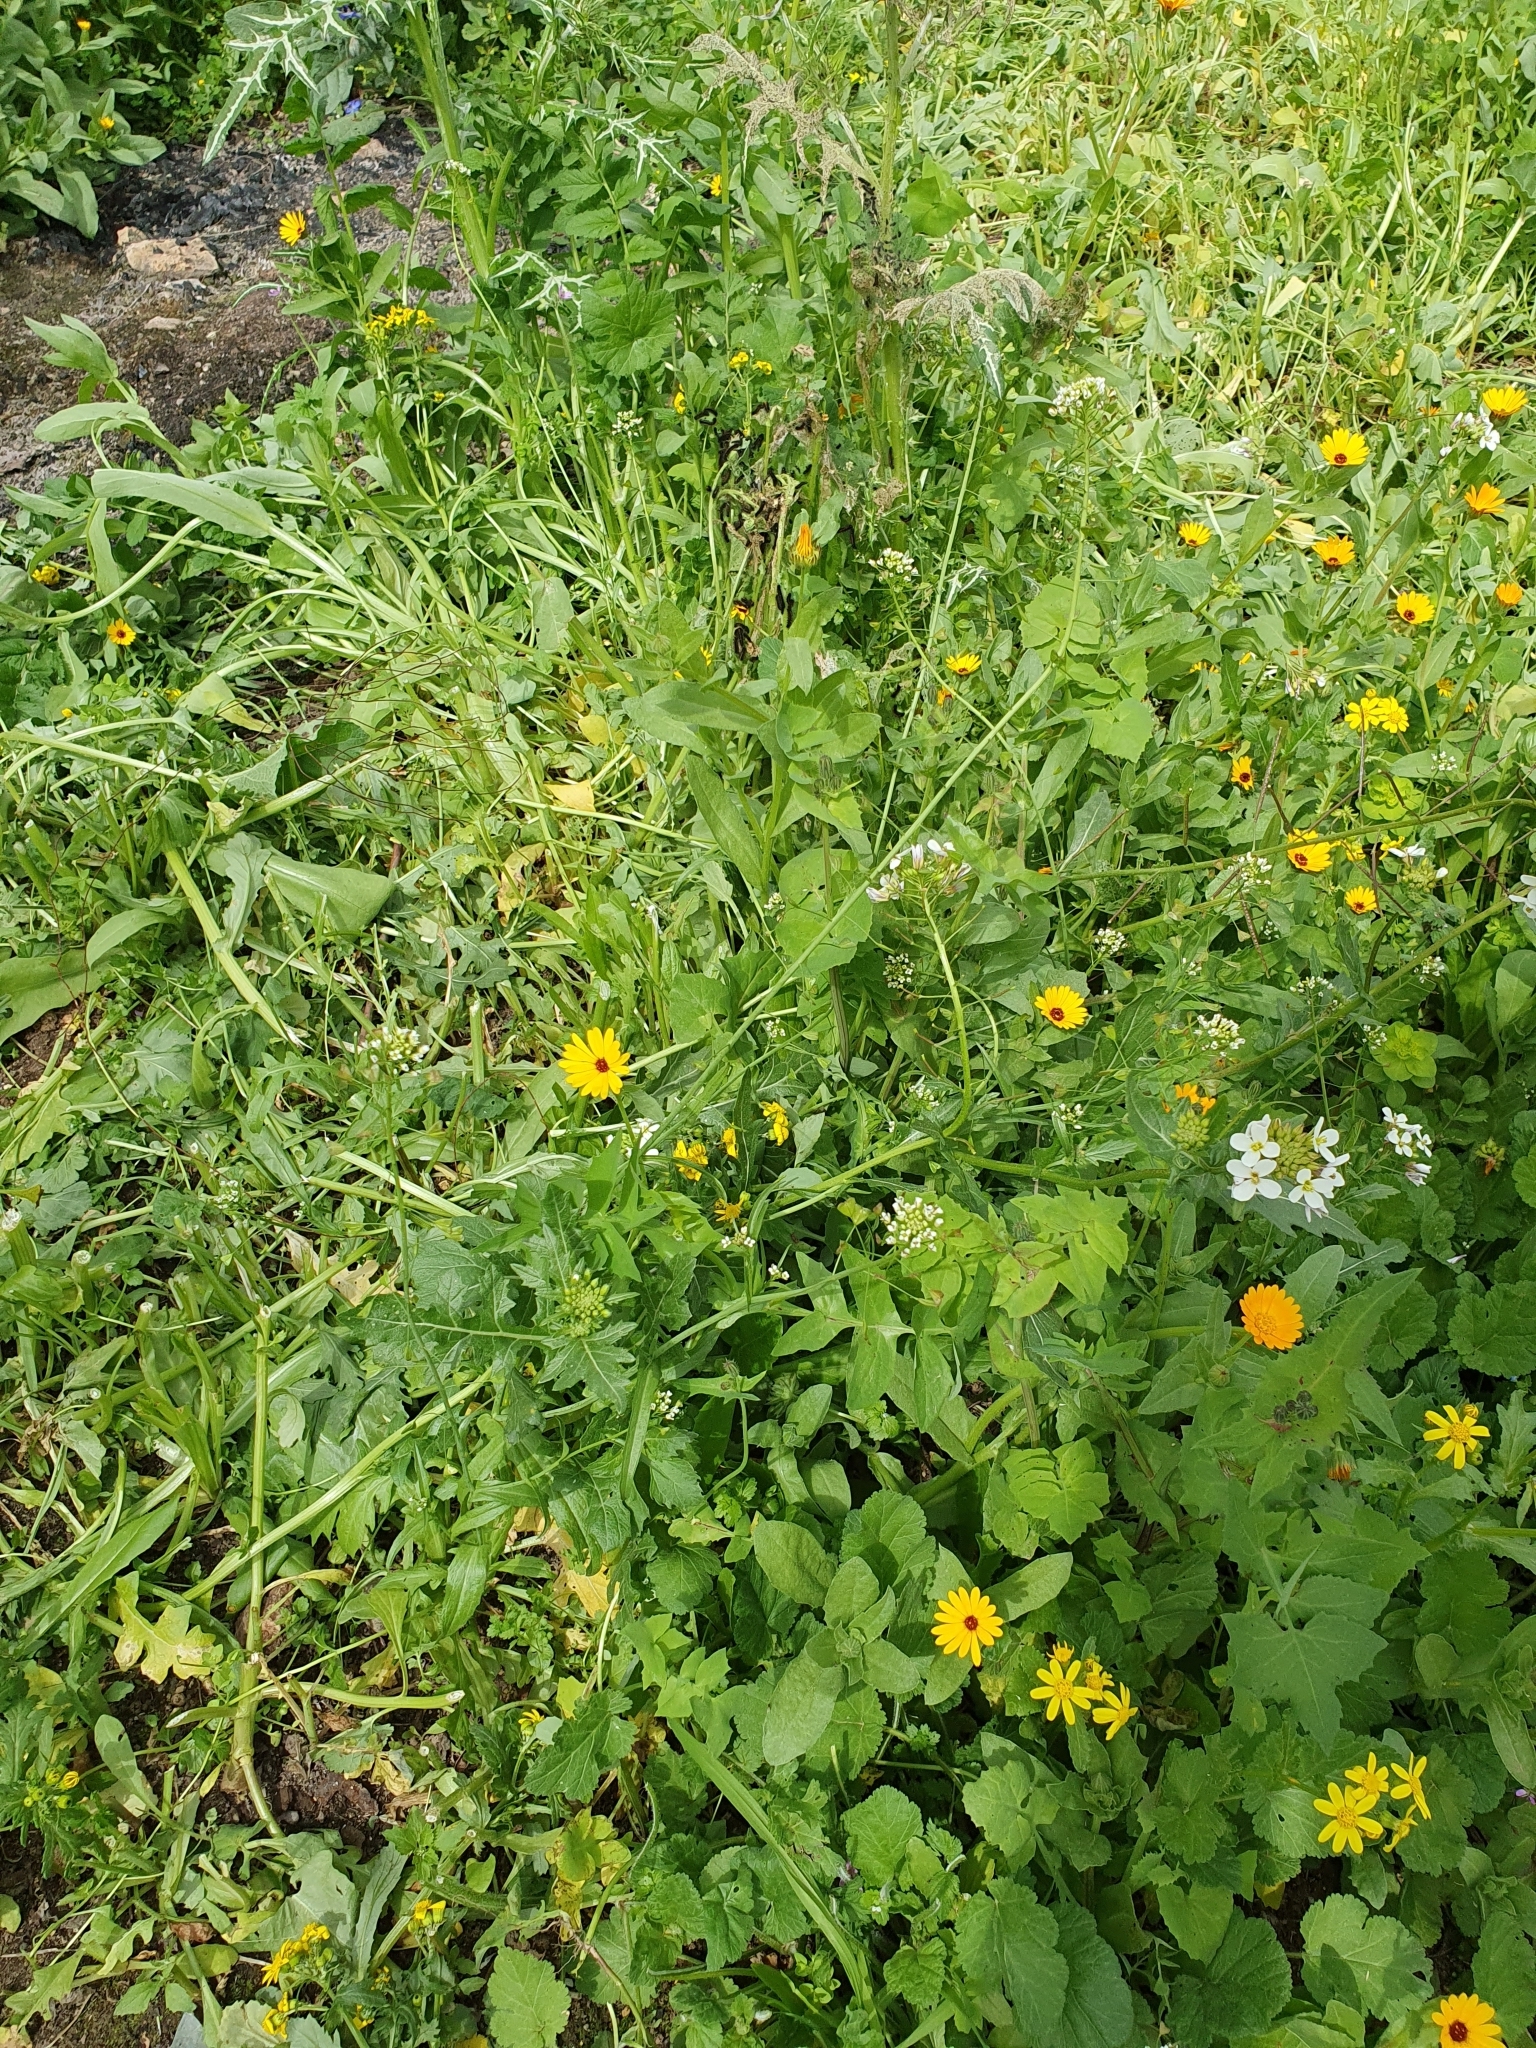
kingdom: Plantae
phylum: Tracheophyta
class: Magnoliopsida
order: Brassicales
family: Brassicaceae
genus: Capsella
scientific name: Capsella bursa-pastoris
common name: Shepherd's purse
